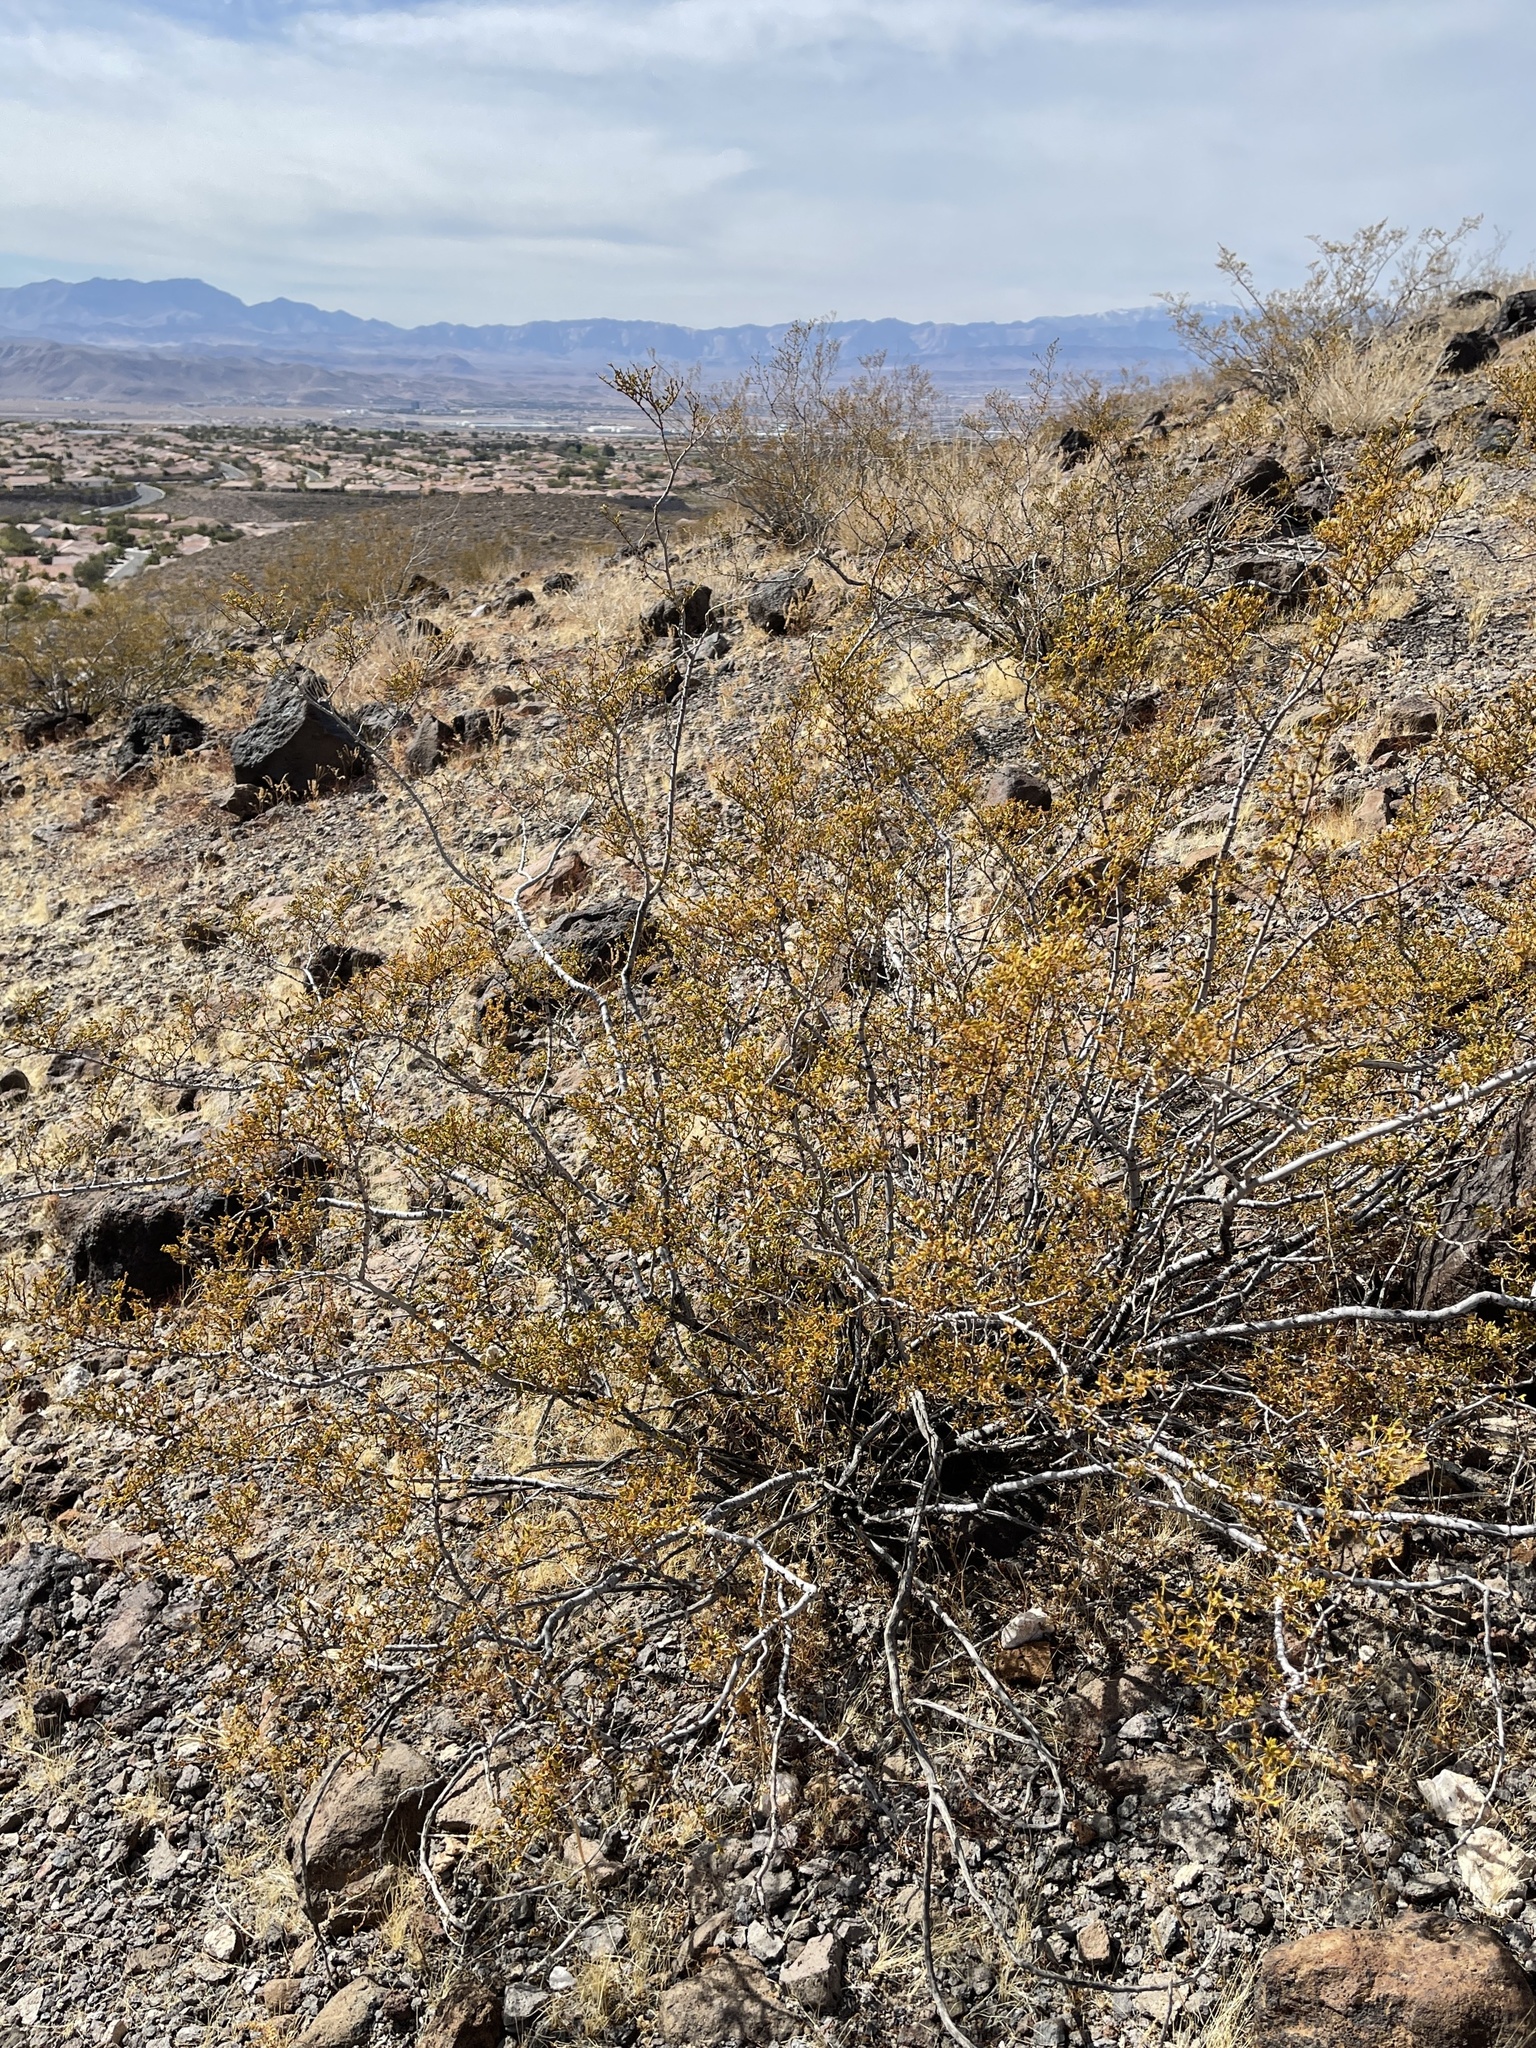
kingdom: Plantae
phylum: Tracheophyta
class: Magnoliopsida
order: Zygophyllales
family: Zygophyllaceae
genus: Larrea
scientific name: Larrea tridentata
